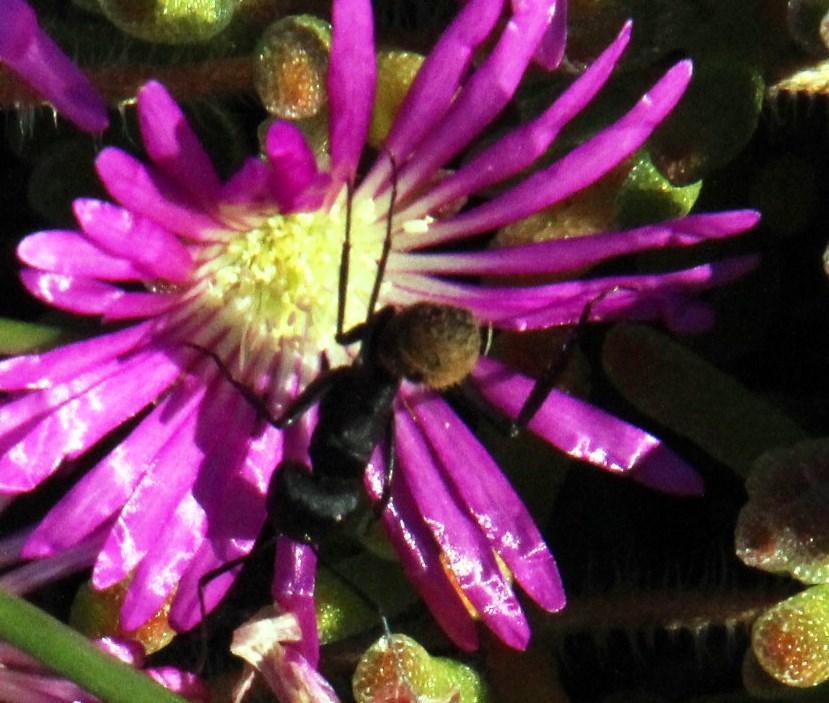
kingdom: Animalia
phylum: Arthropoda
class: Insecta
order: Hymenoptera
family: Formicidae
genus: Camponotus
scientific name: Camponotus fulvopilosus
